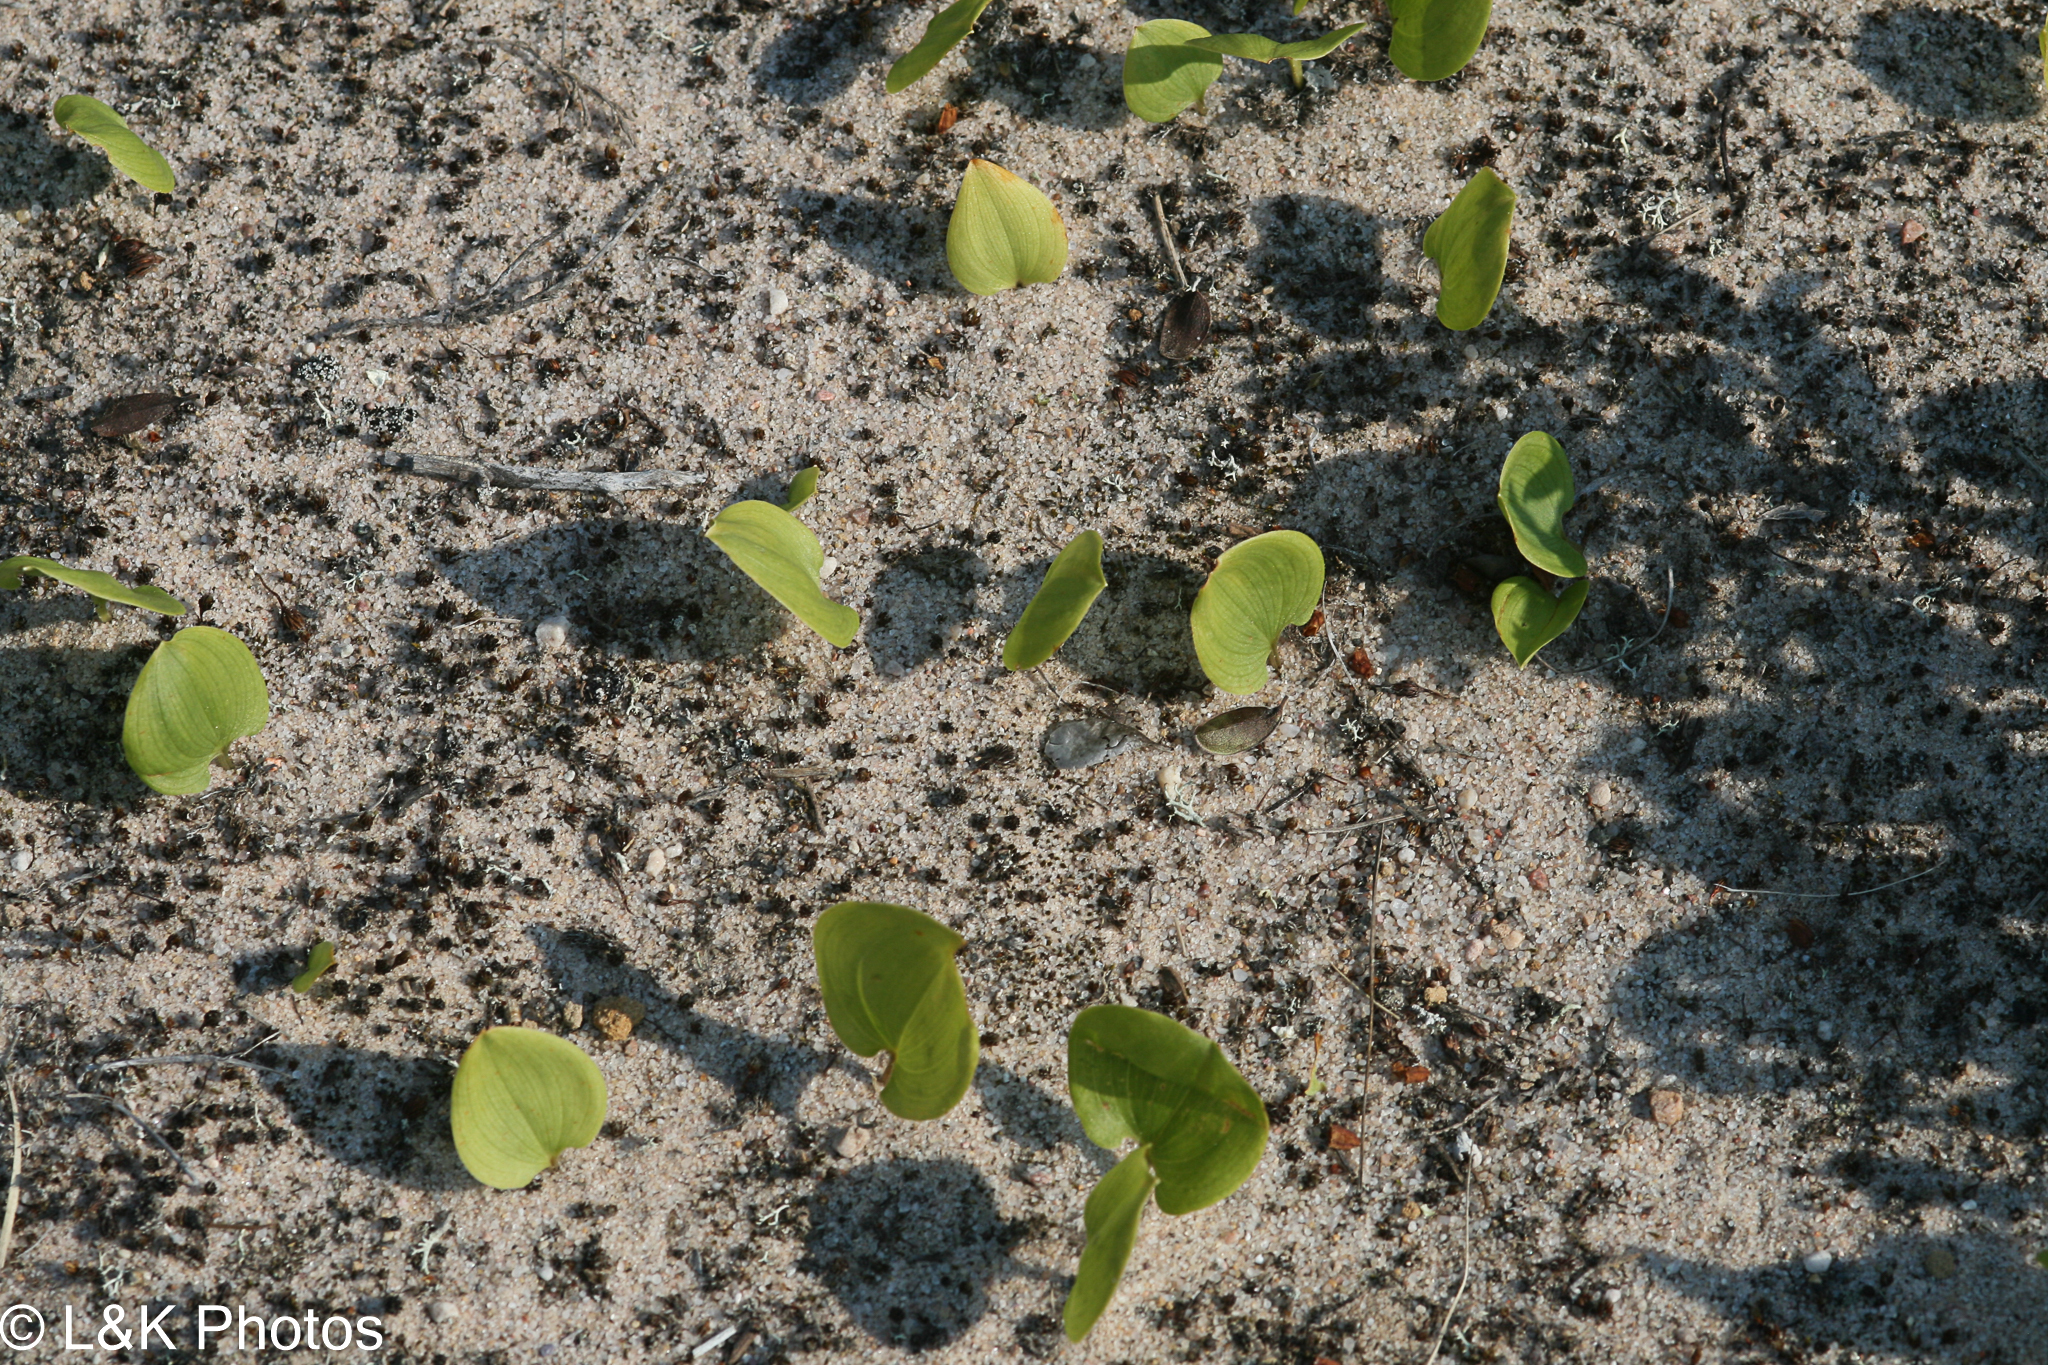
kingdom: Plantae
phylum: Tracheophyta
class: Liliopsida
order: Asparagales
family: Asparagaceae
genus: Maianthemum
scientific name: Maianthemum canadense
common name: False lily-of-the-valley
